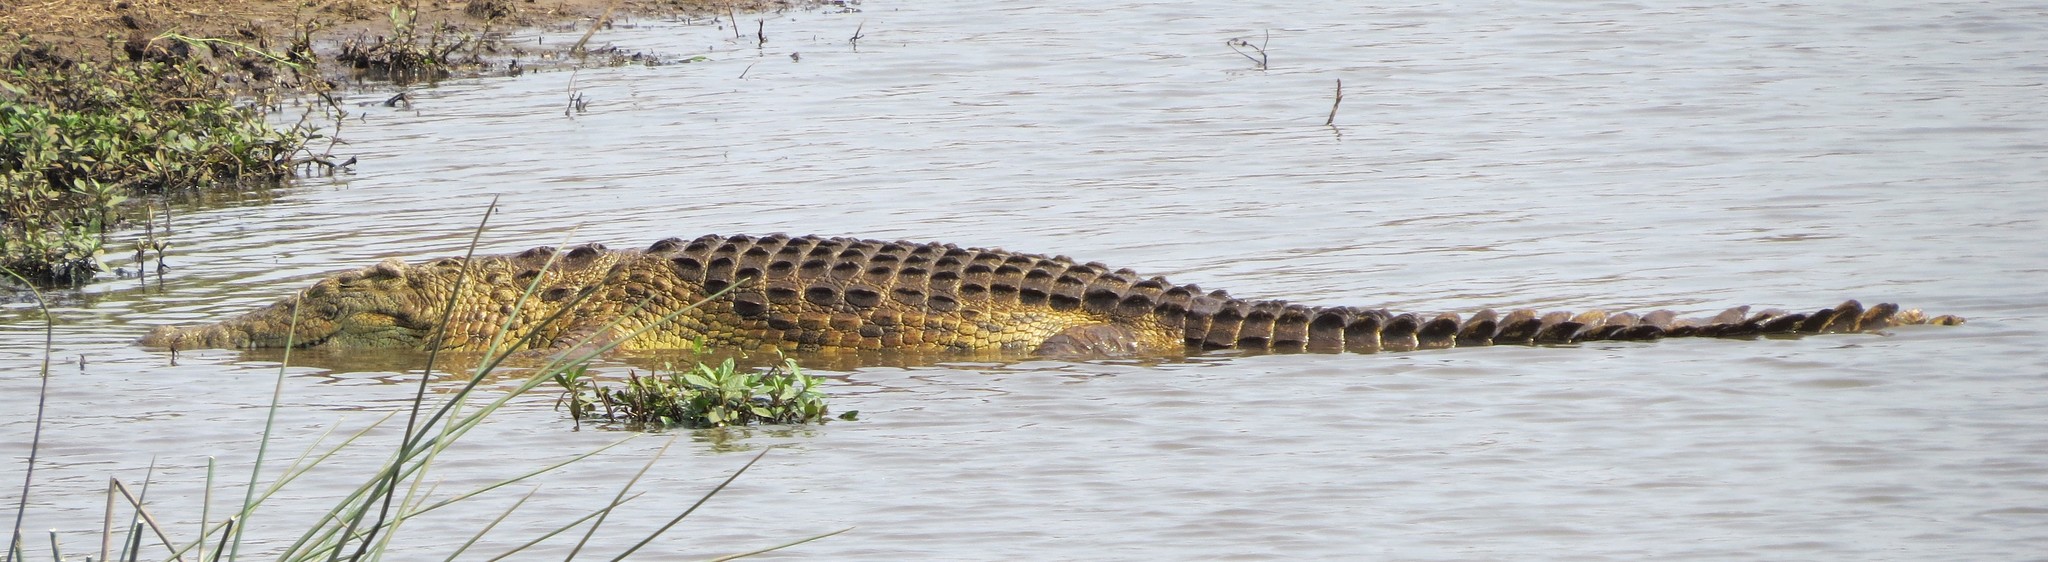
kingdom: Animalia
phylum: Chordata
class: Crocodylia
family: Crocodylidae
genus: Crocodylus
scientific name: Crocodylus niloticus
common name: Nile crocodile
